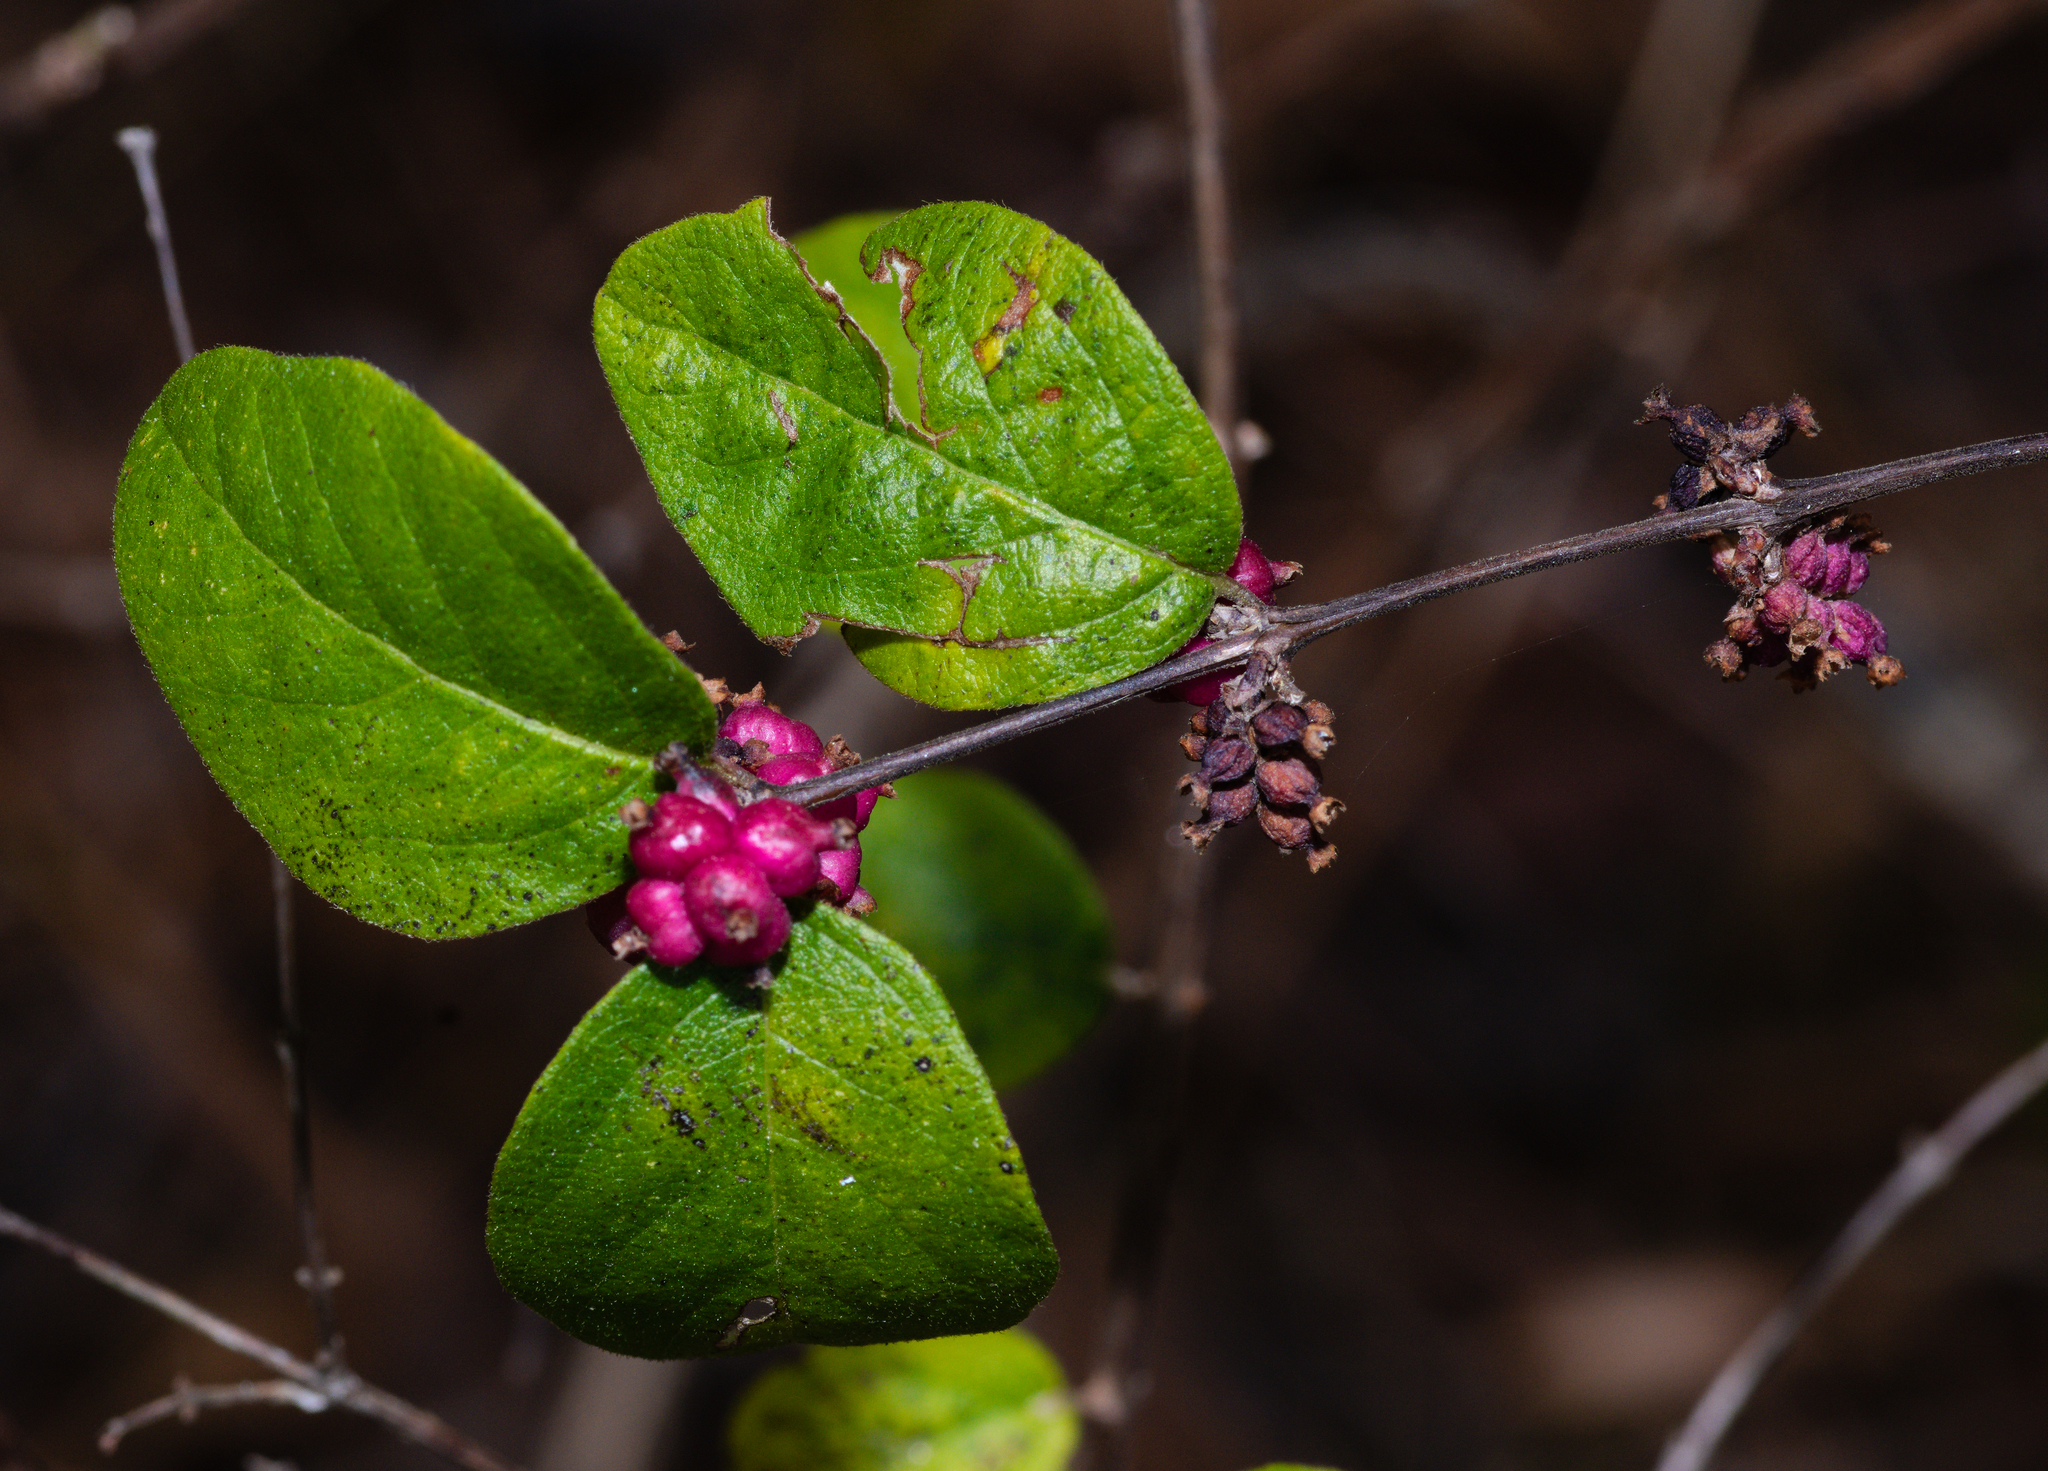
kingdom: Plantae
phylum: Tracheophyta
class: Magnoliopsida
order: Dipsacales
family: Caprifoliaceae
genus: Symphoricarpos
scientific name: Symphoricarpos orbiculatus
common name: Coralberry
